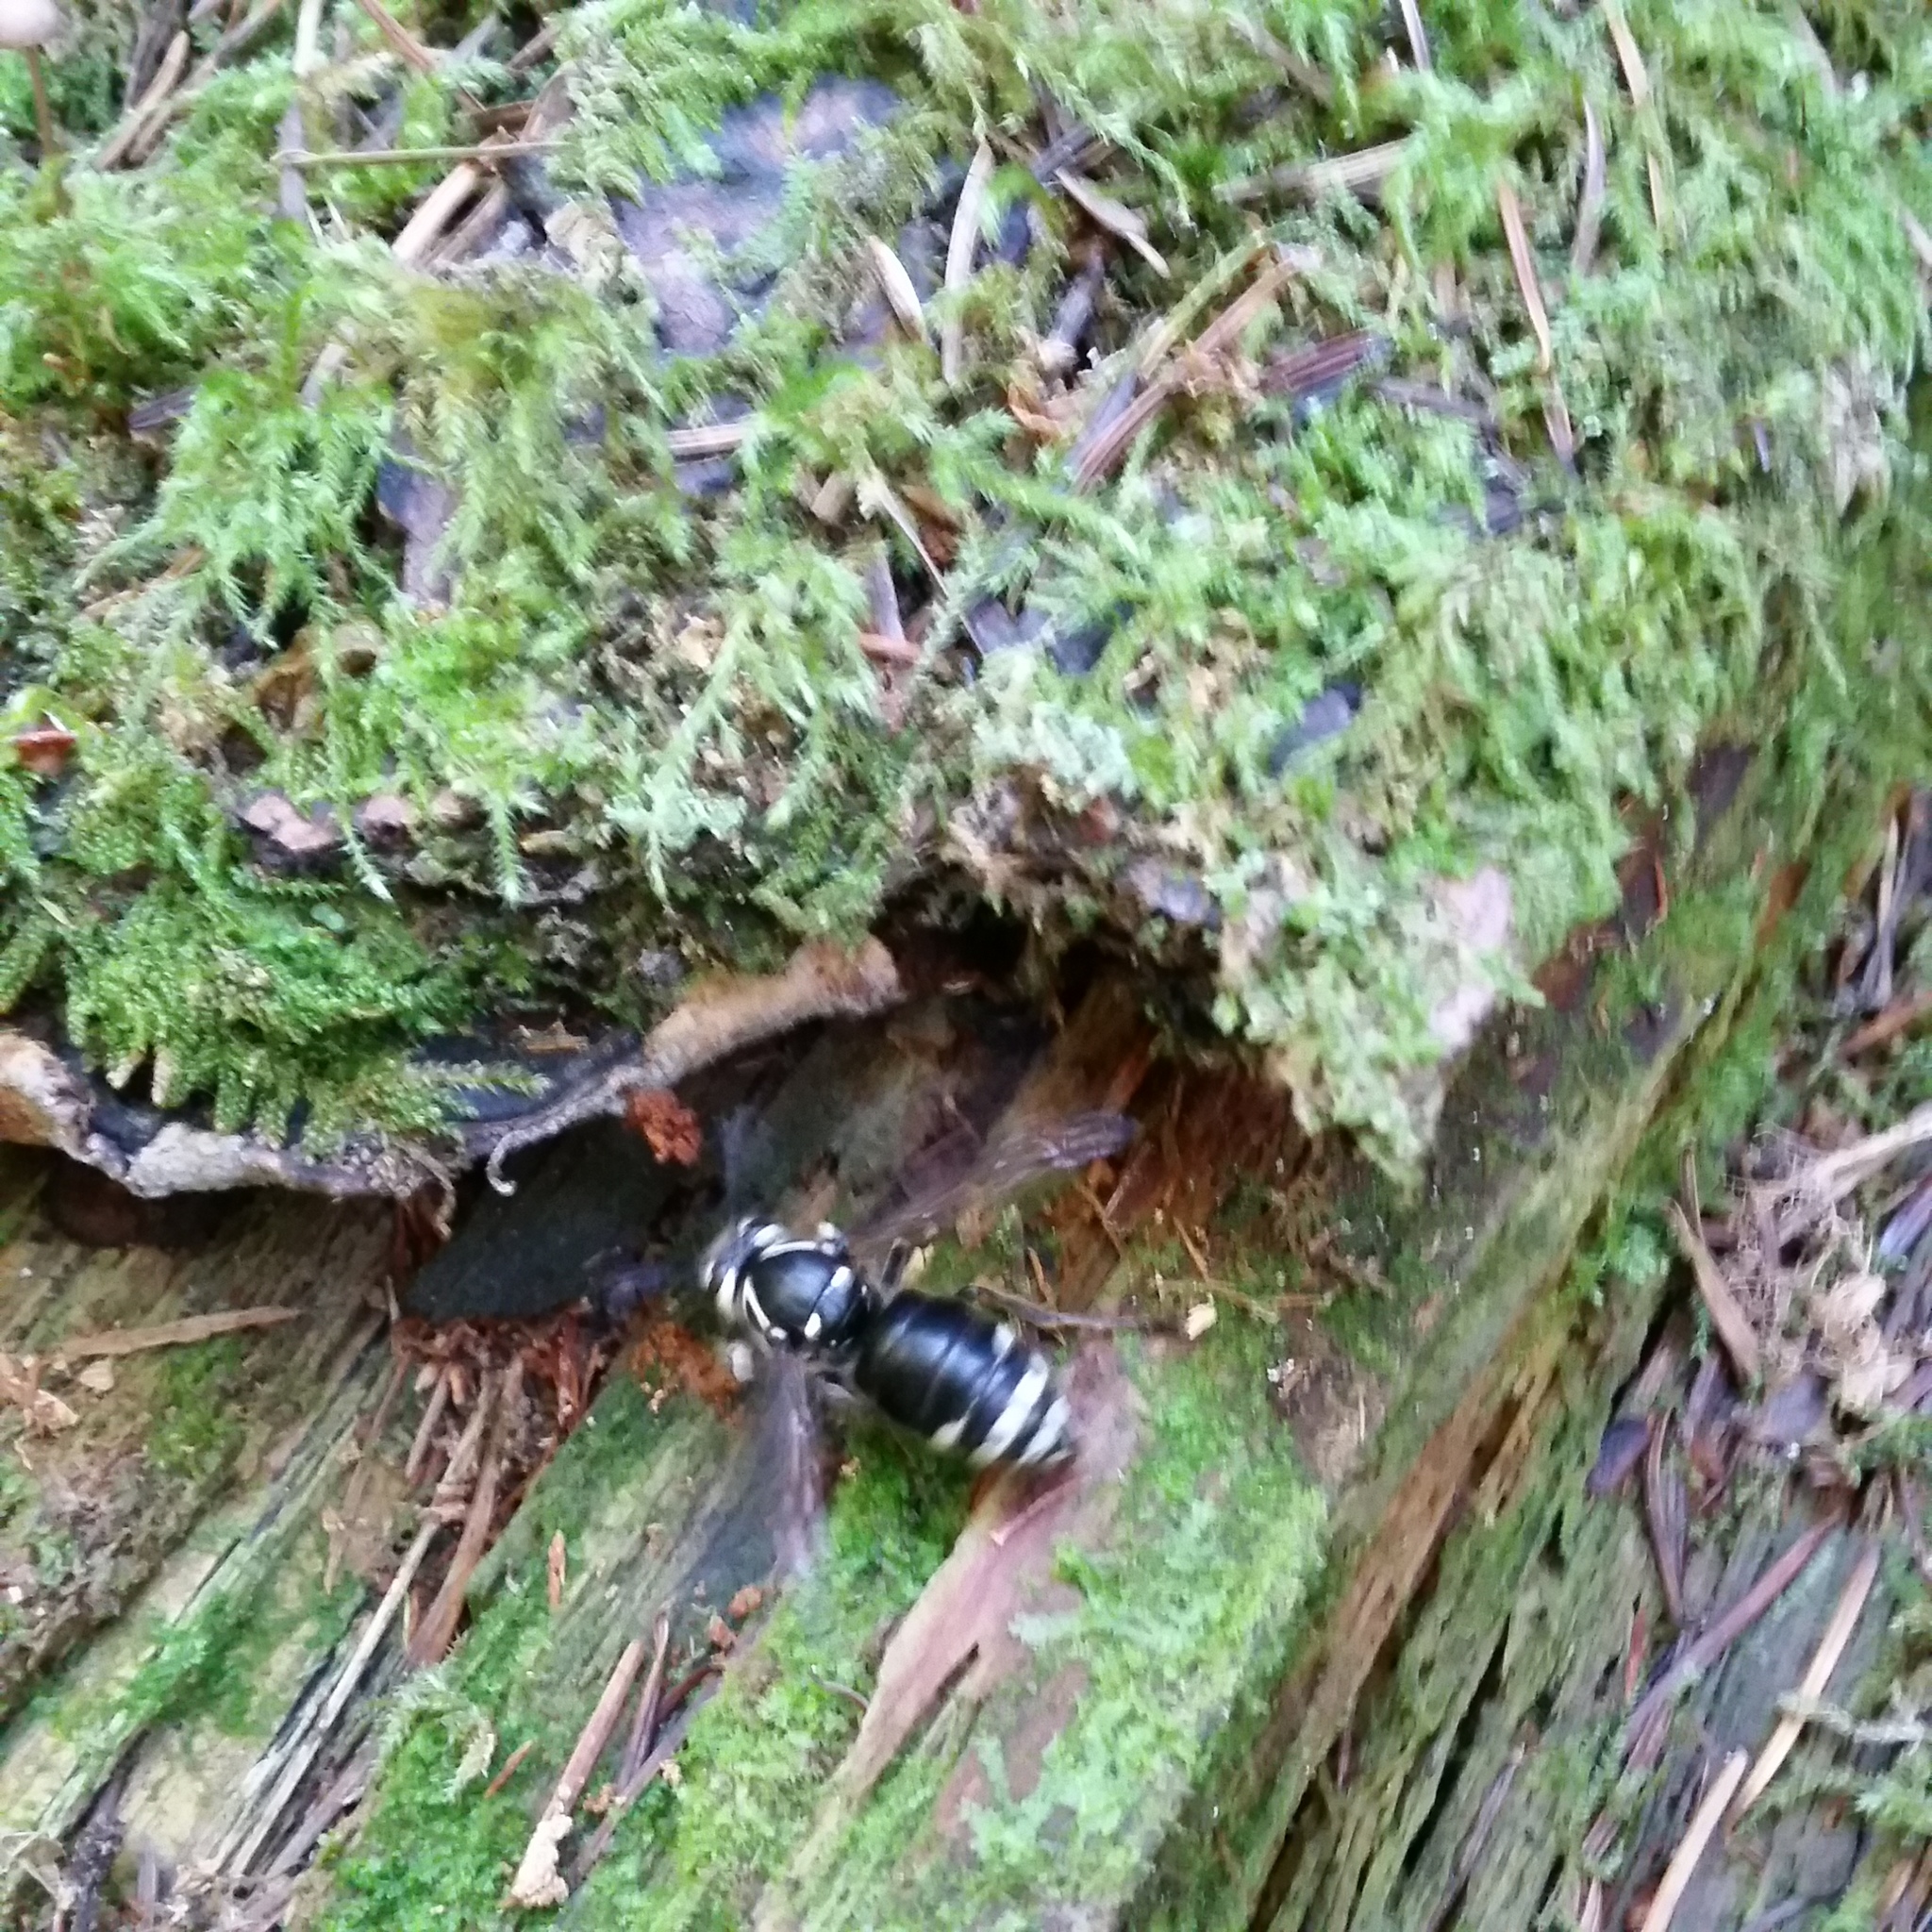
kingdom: Animalia
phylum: Arthropoda
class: Insecta
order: Hymenoptera
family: Vespidae
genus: Dolichovespula
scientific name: Dolichovespula maculata
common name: Bald-faced hornet
